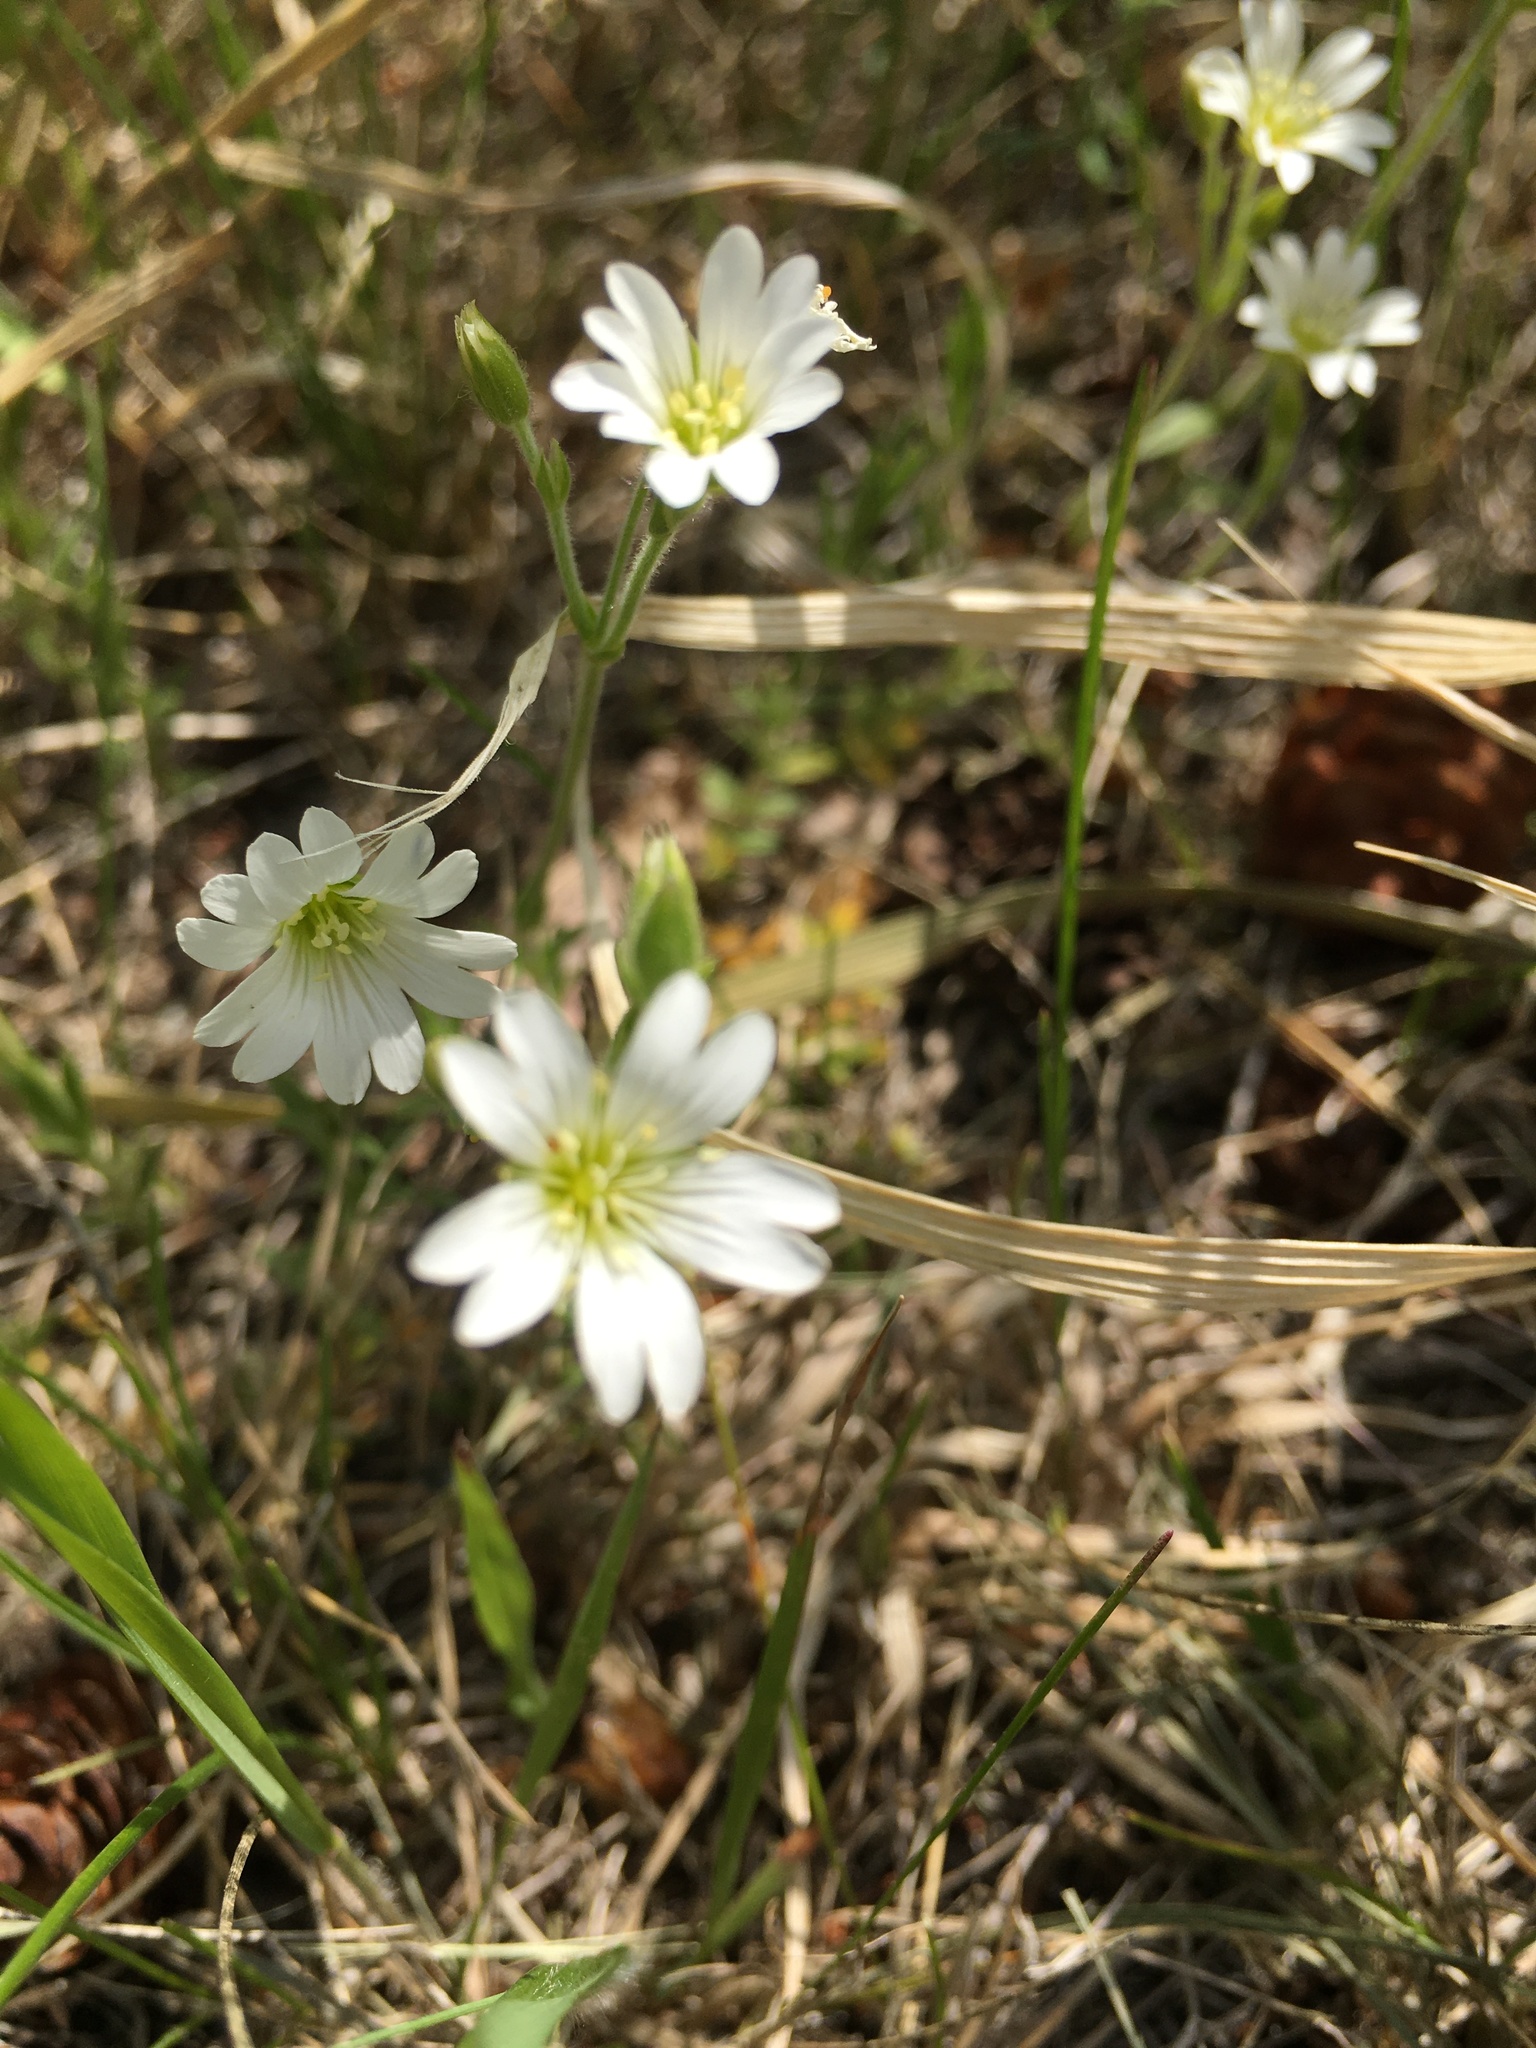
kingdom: Plantae
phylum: Tracheophyta
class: Magnoliopsida
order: Caryophyllales
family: Caryophyllaceae
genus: Cerastium
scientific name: Cerastium arvense
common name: Field mouse-ear
